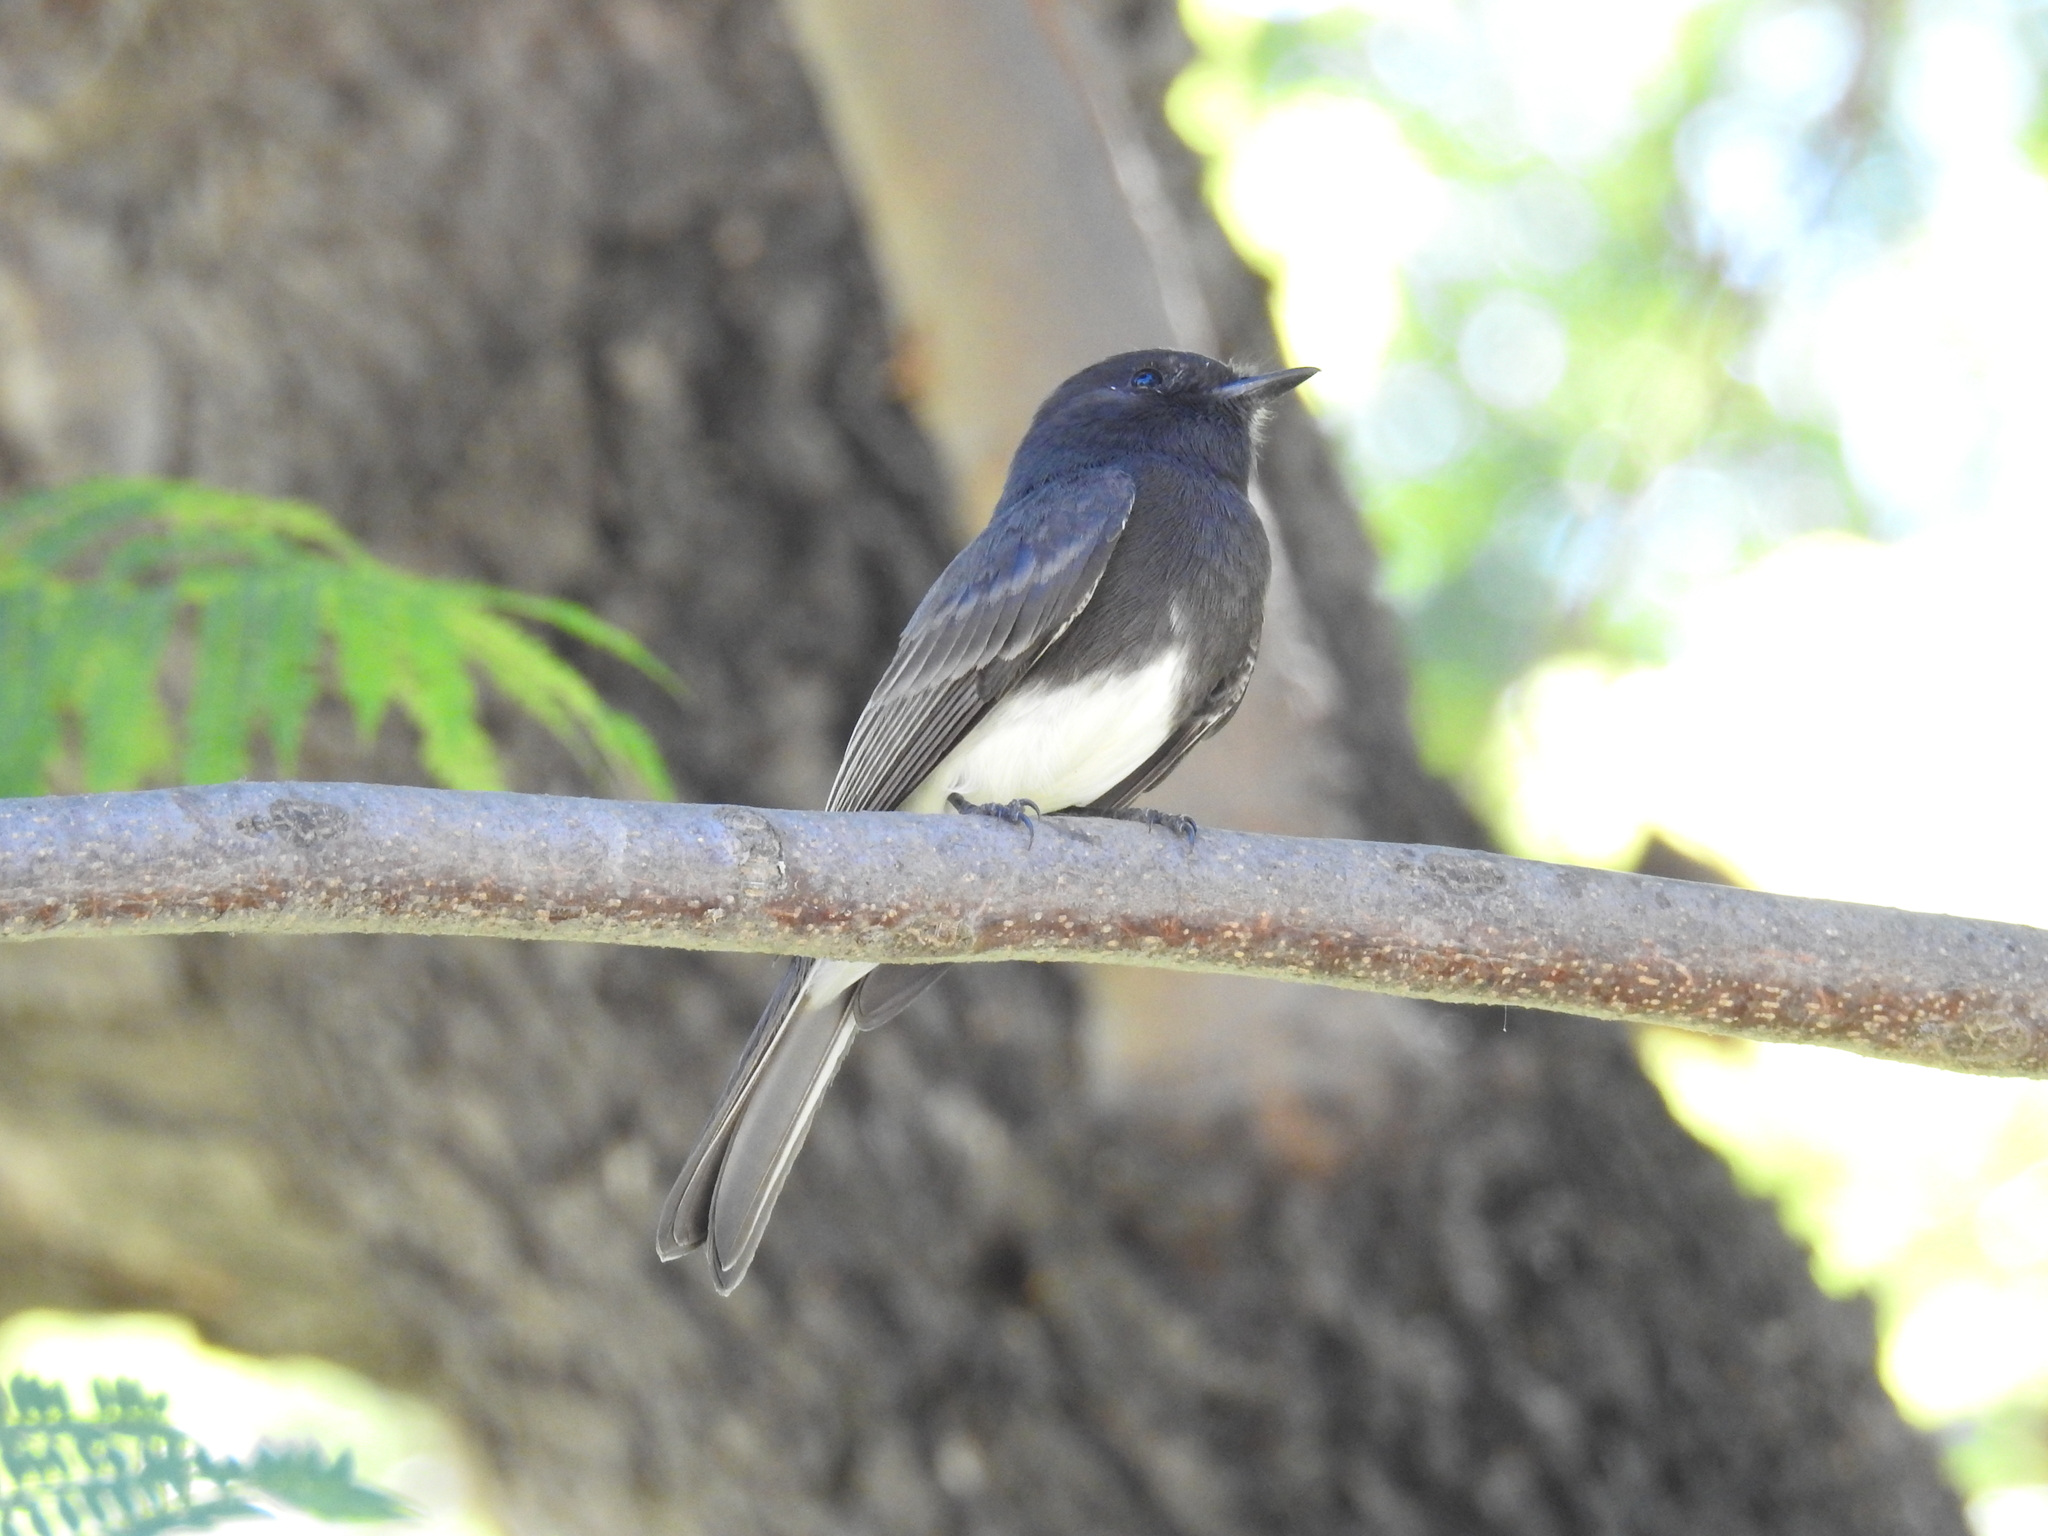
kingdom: Animalia
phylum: Chordata
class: Aves
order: Passeriformes
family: Tyrannidae
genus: Sayornis
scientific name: Sayornis nigricans
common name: Black phoebe
